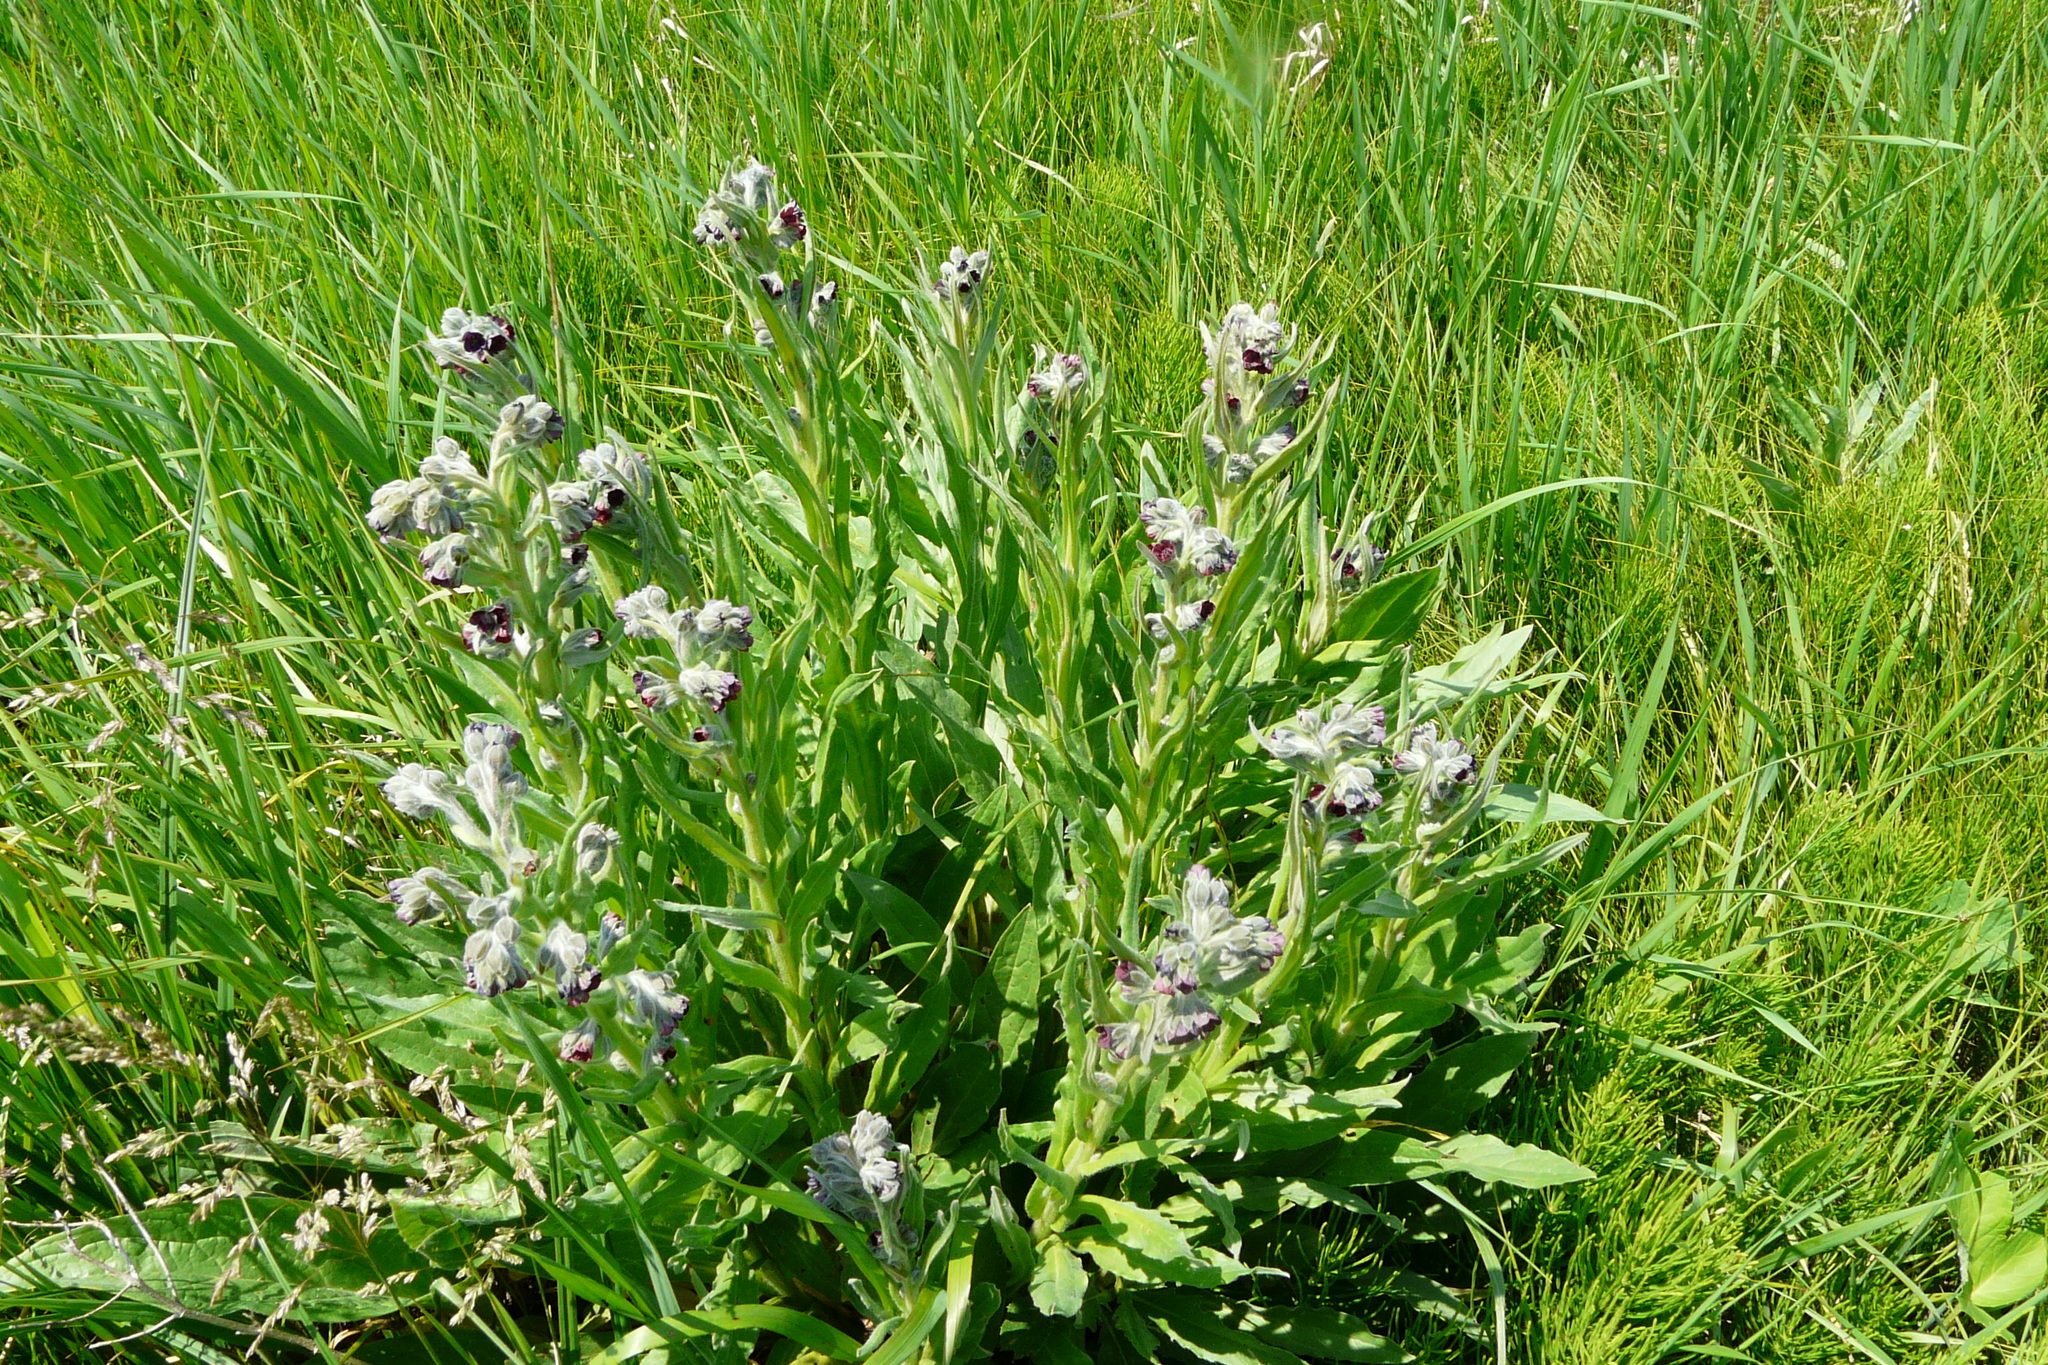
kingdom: Plantae
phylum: Tracheophyta
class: Magnoliopsida
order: Boraginales
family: Boraginaceae
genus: Cynoglossum
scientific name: Cynoglossum officinale
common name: Hound's-tongue
